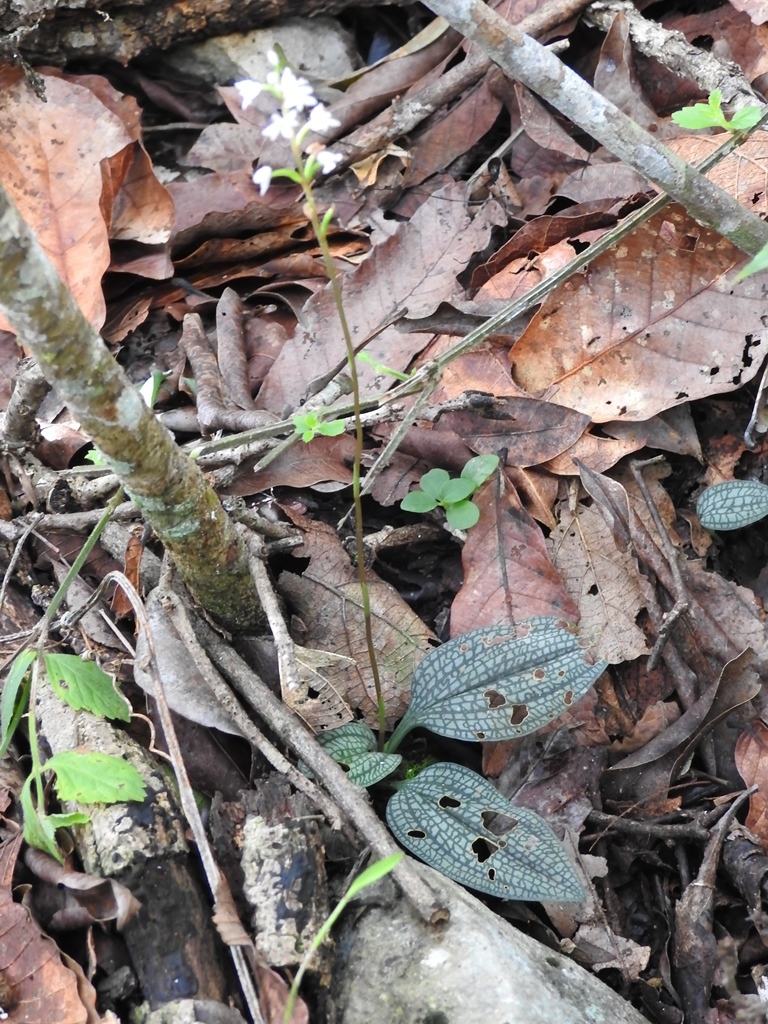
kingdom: Plantae
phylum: Tracheophyta
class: Liliopsida
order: Asparagales
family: Orchidaceae
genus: Cranichis
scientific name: Cranichis cochleata
